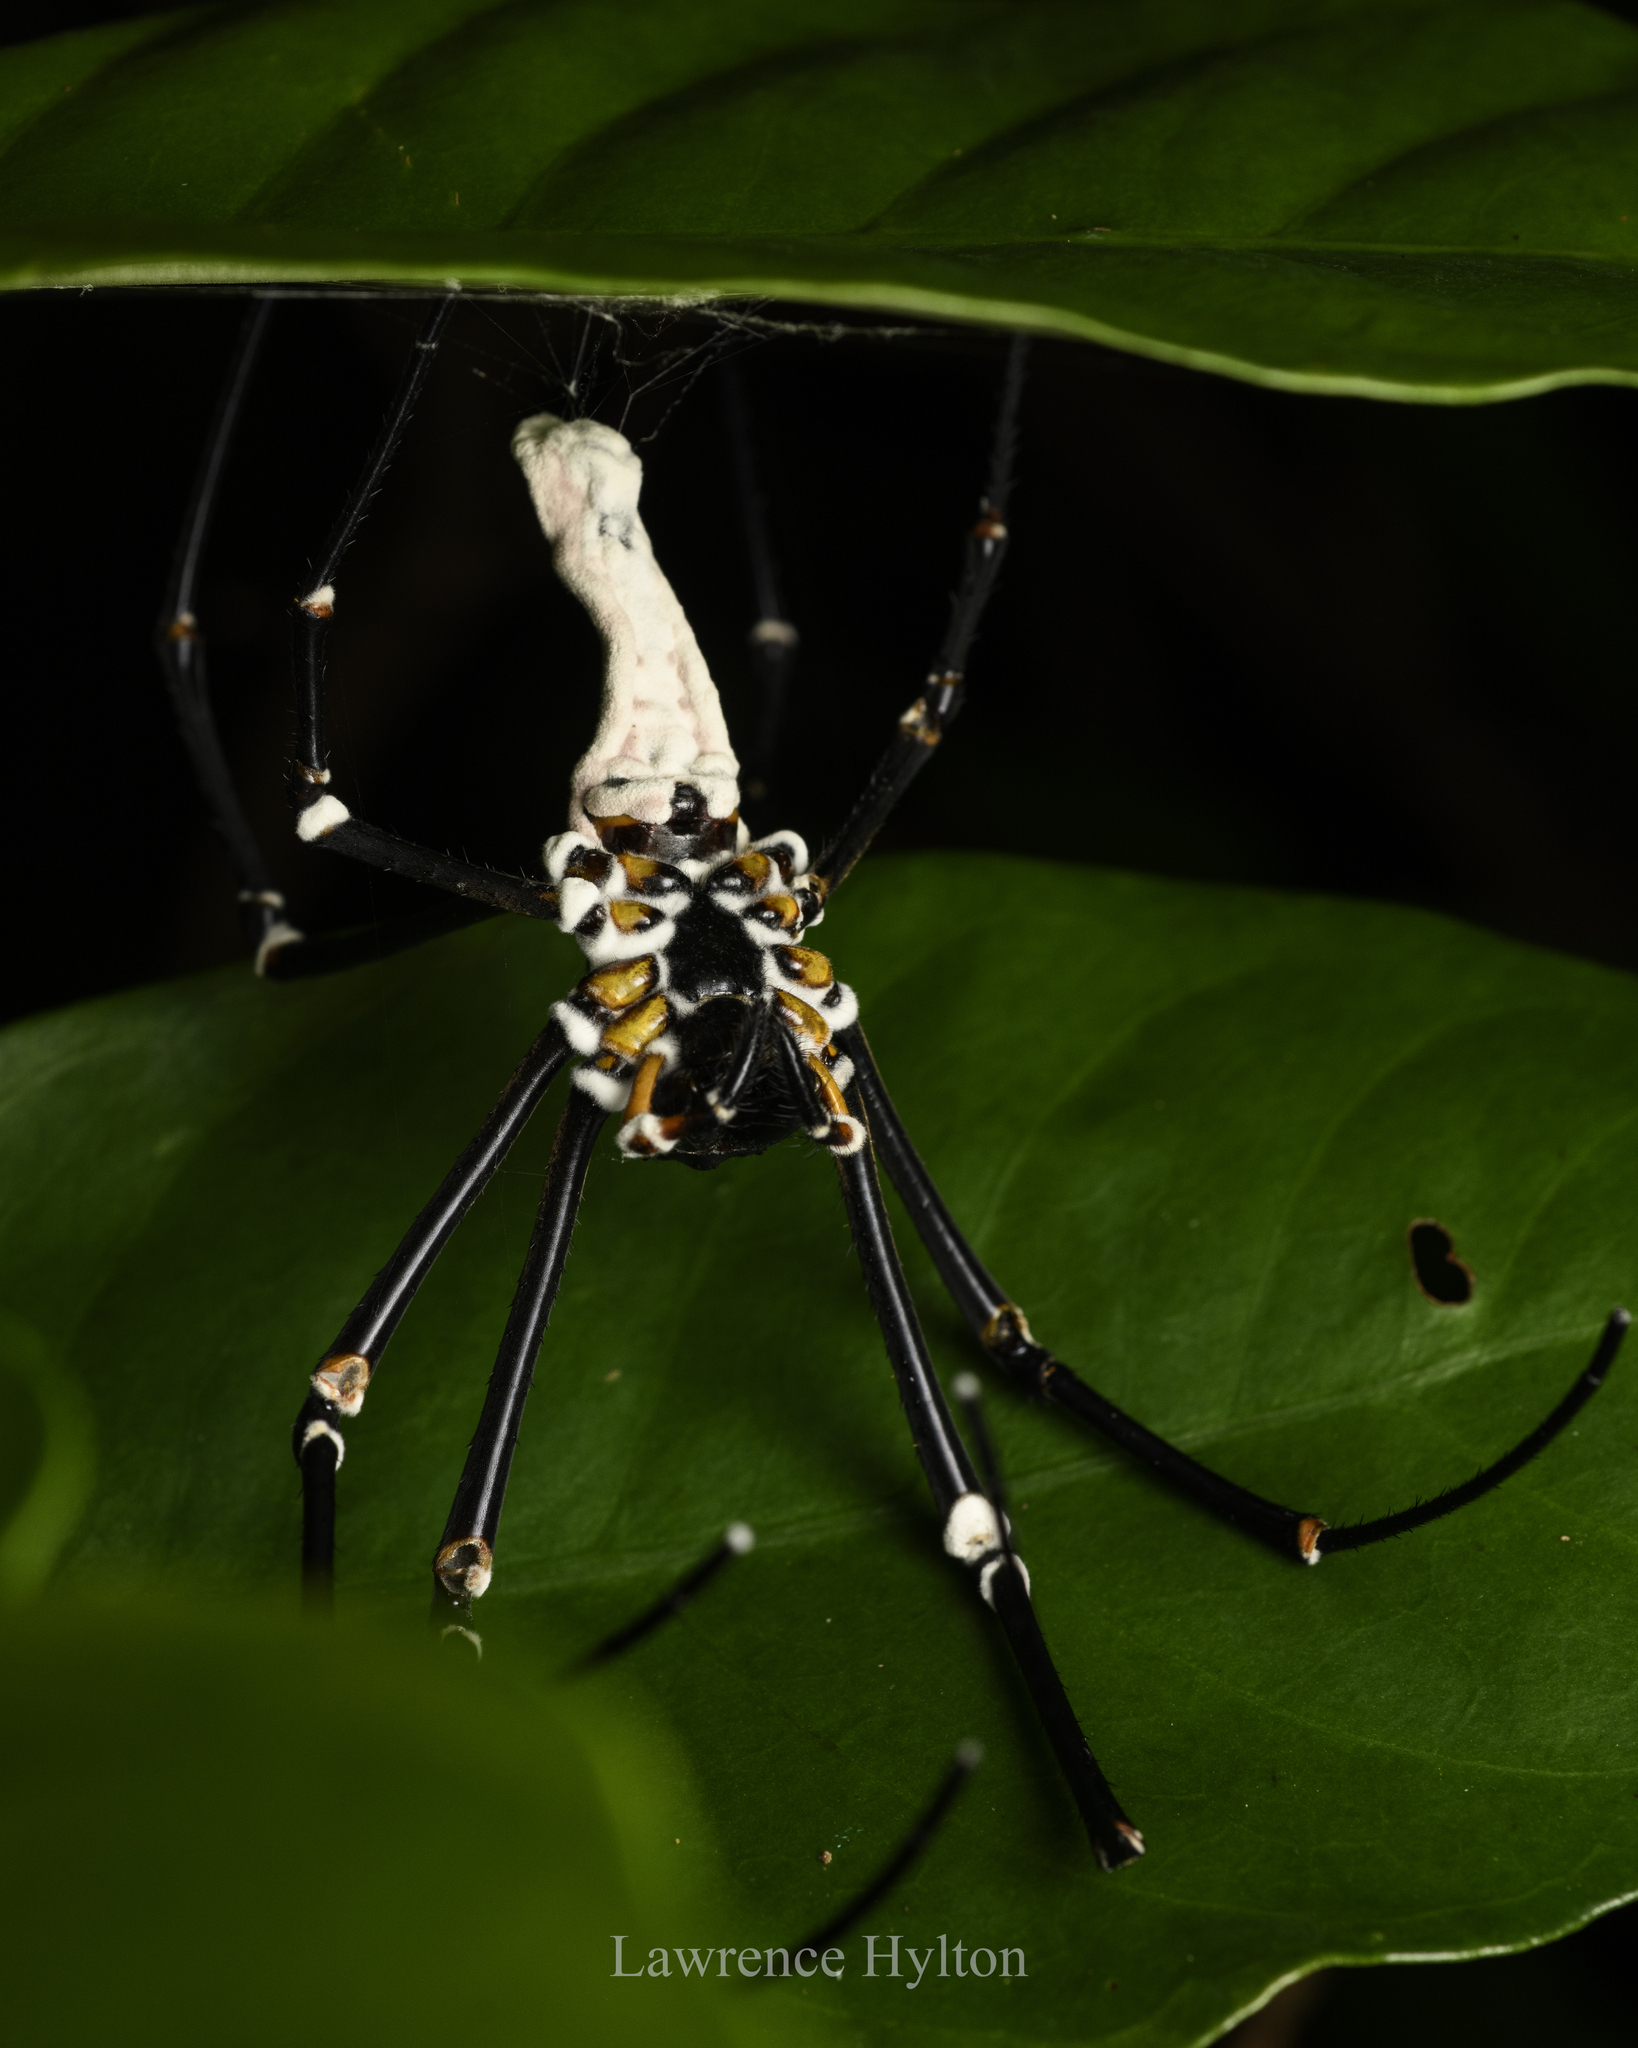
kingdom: Animalia
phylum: Arthropoda
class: Arachnida
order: Araneae
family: Araneidae
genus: Nephila
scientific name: Nephila pilipes
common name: Giant golden orb weaver
